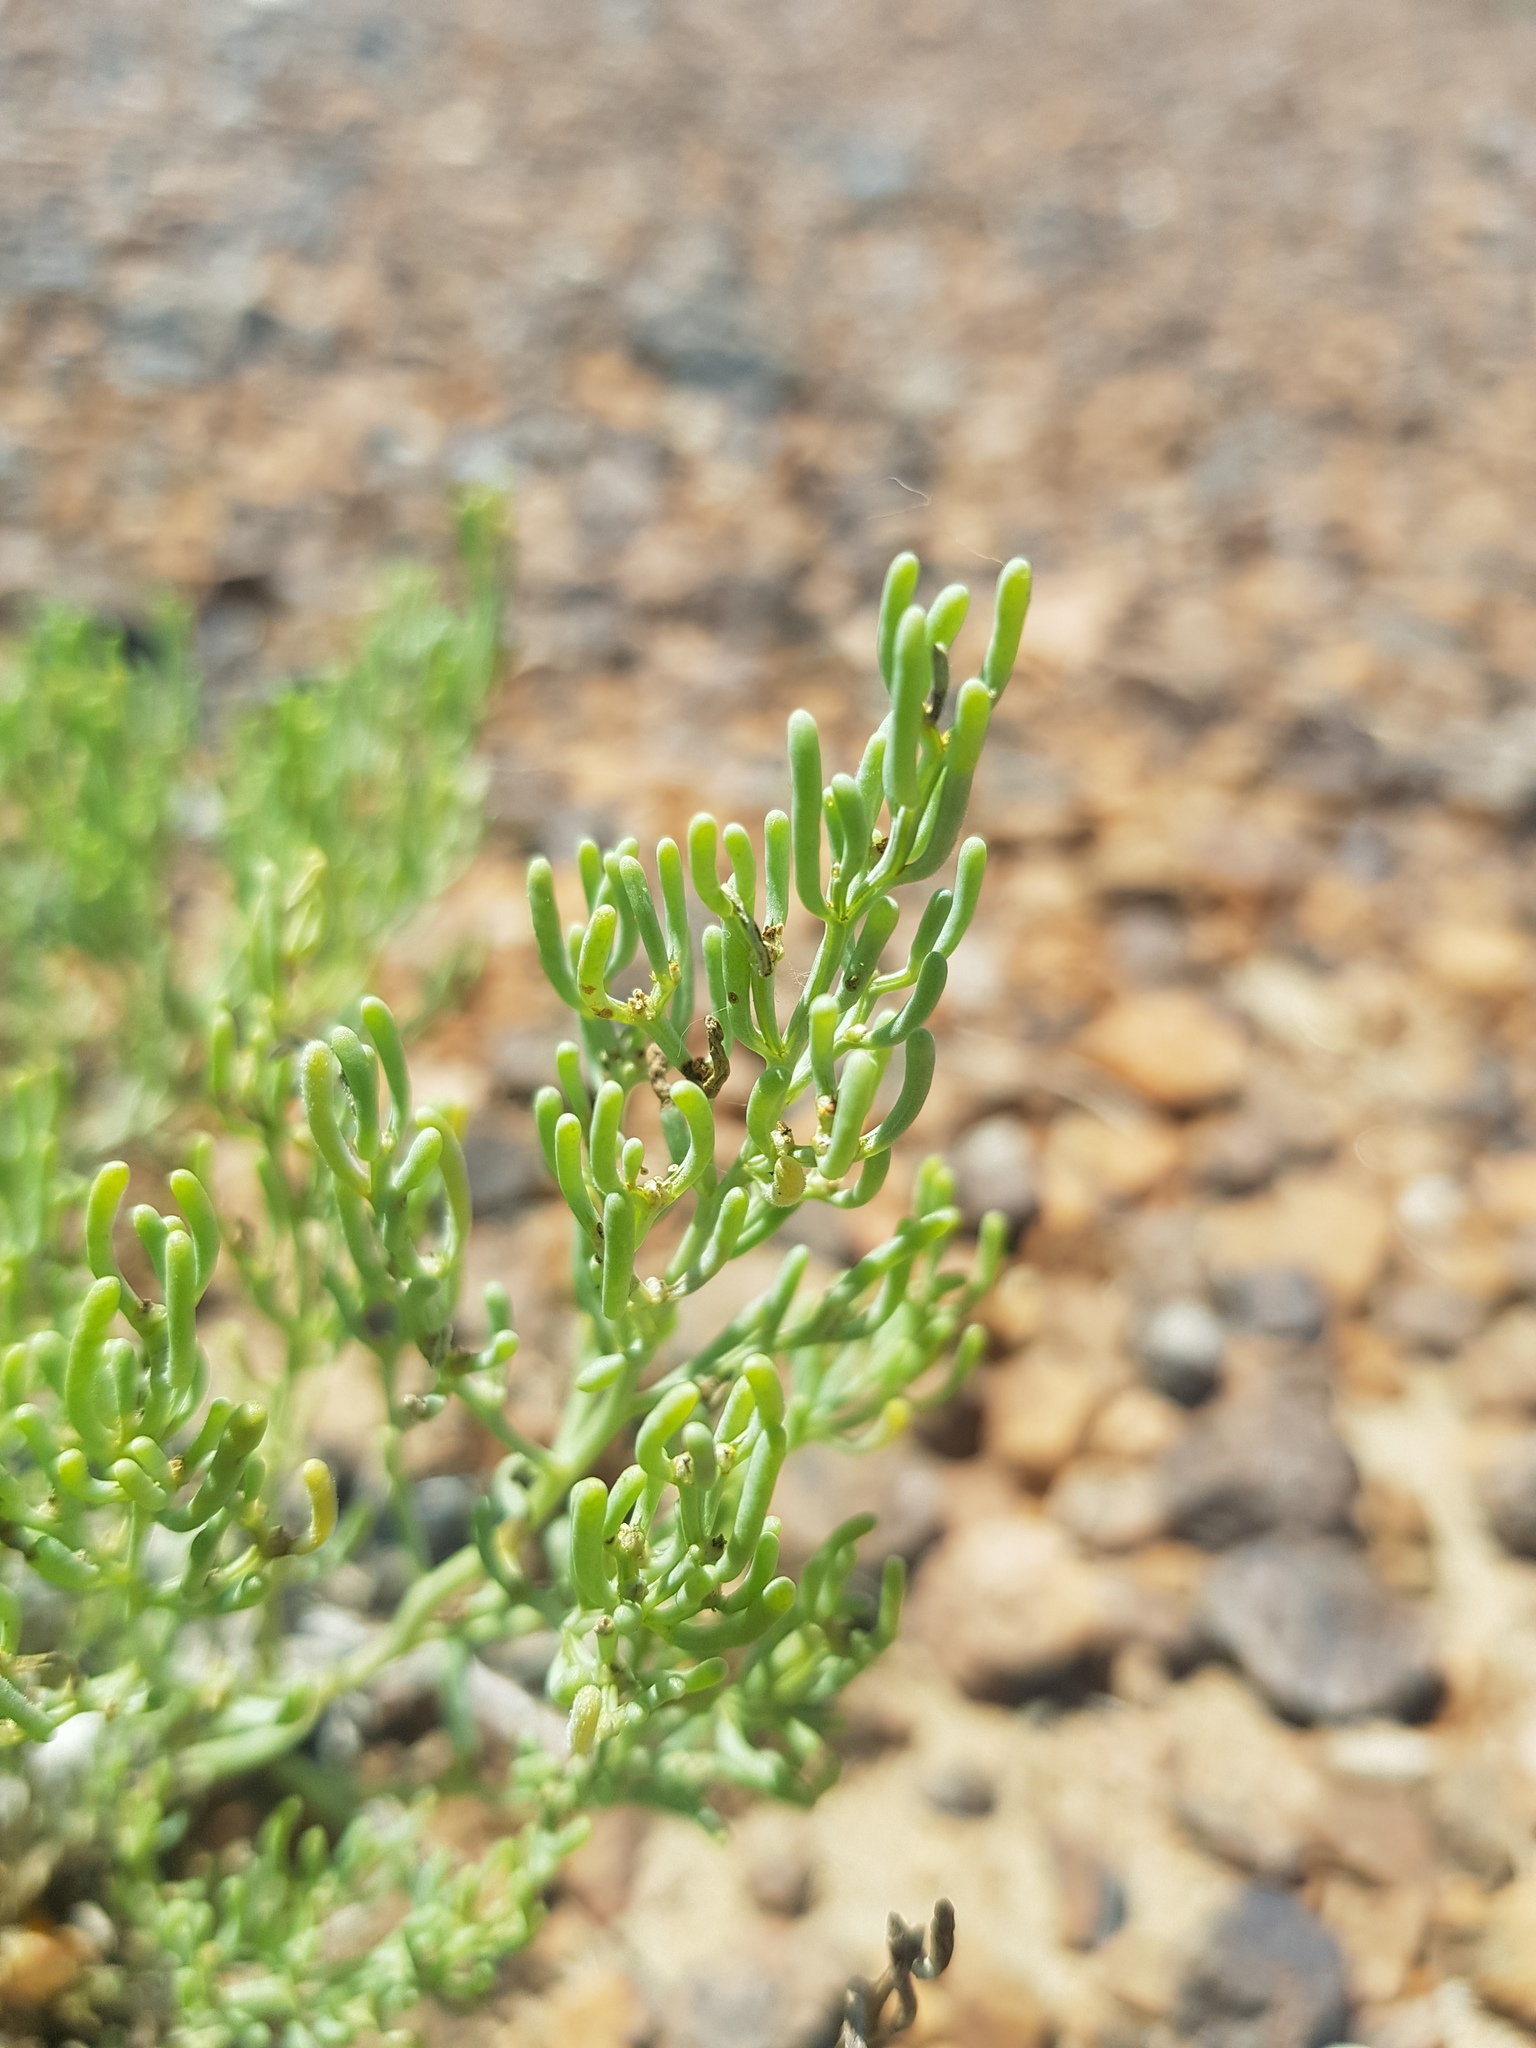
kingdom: Plantae
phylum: Tracheophyta
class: Magnoliopsida
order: Caryophyllales
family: Amaranthaceae
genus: Haloxylon
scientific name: Haloxylon regelii
